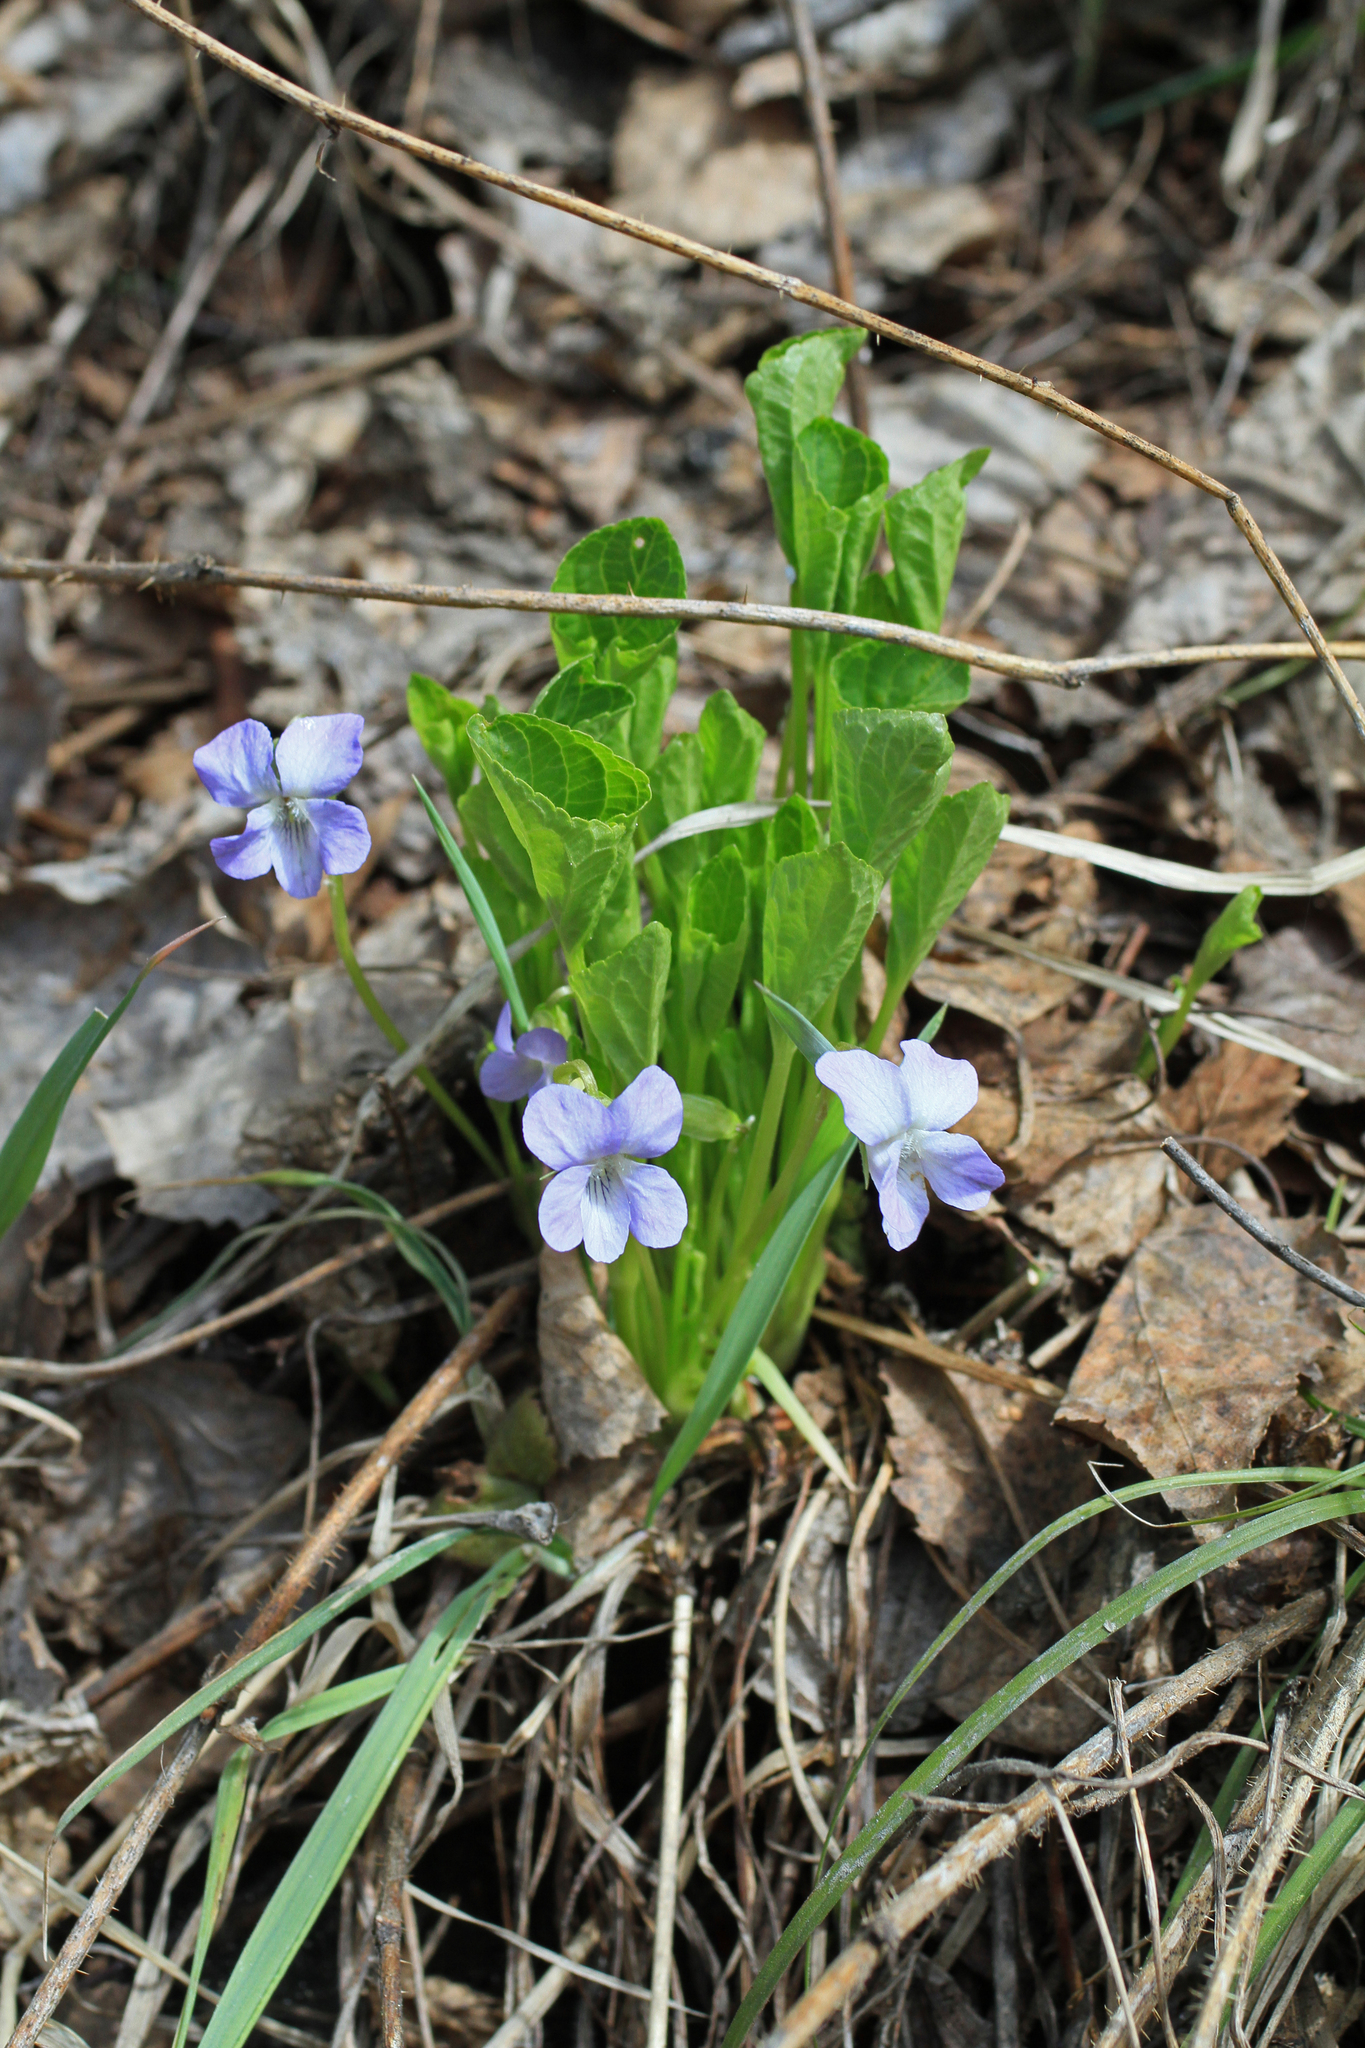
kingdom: Plantae
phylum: Tracheophyta
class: Magnoliopsida
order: Malpighiales
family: Violaceae
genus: Viola
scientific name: Viola mirabilis
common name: Wonder violet
